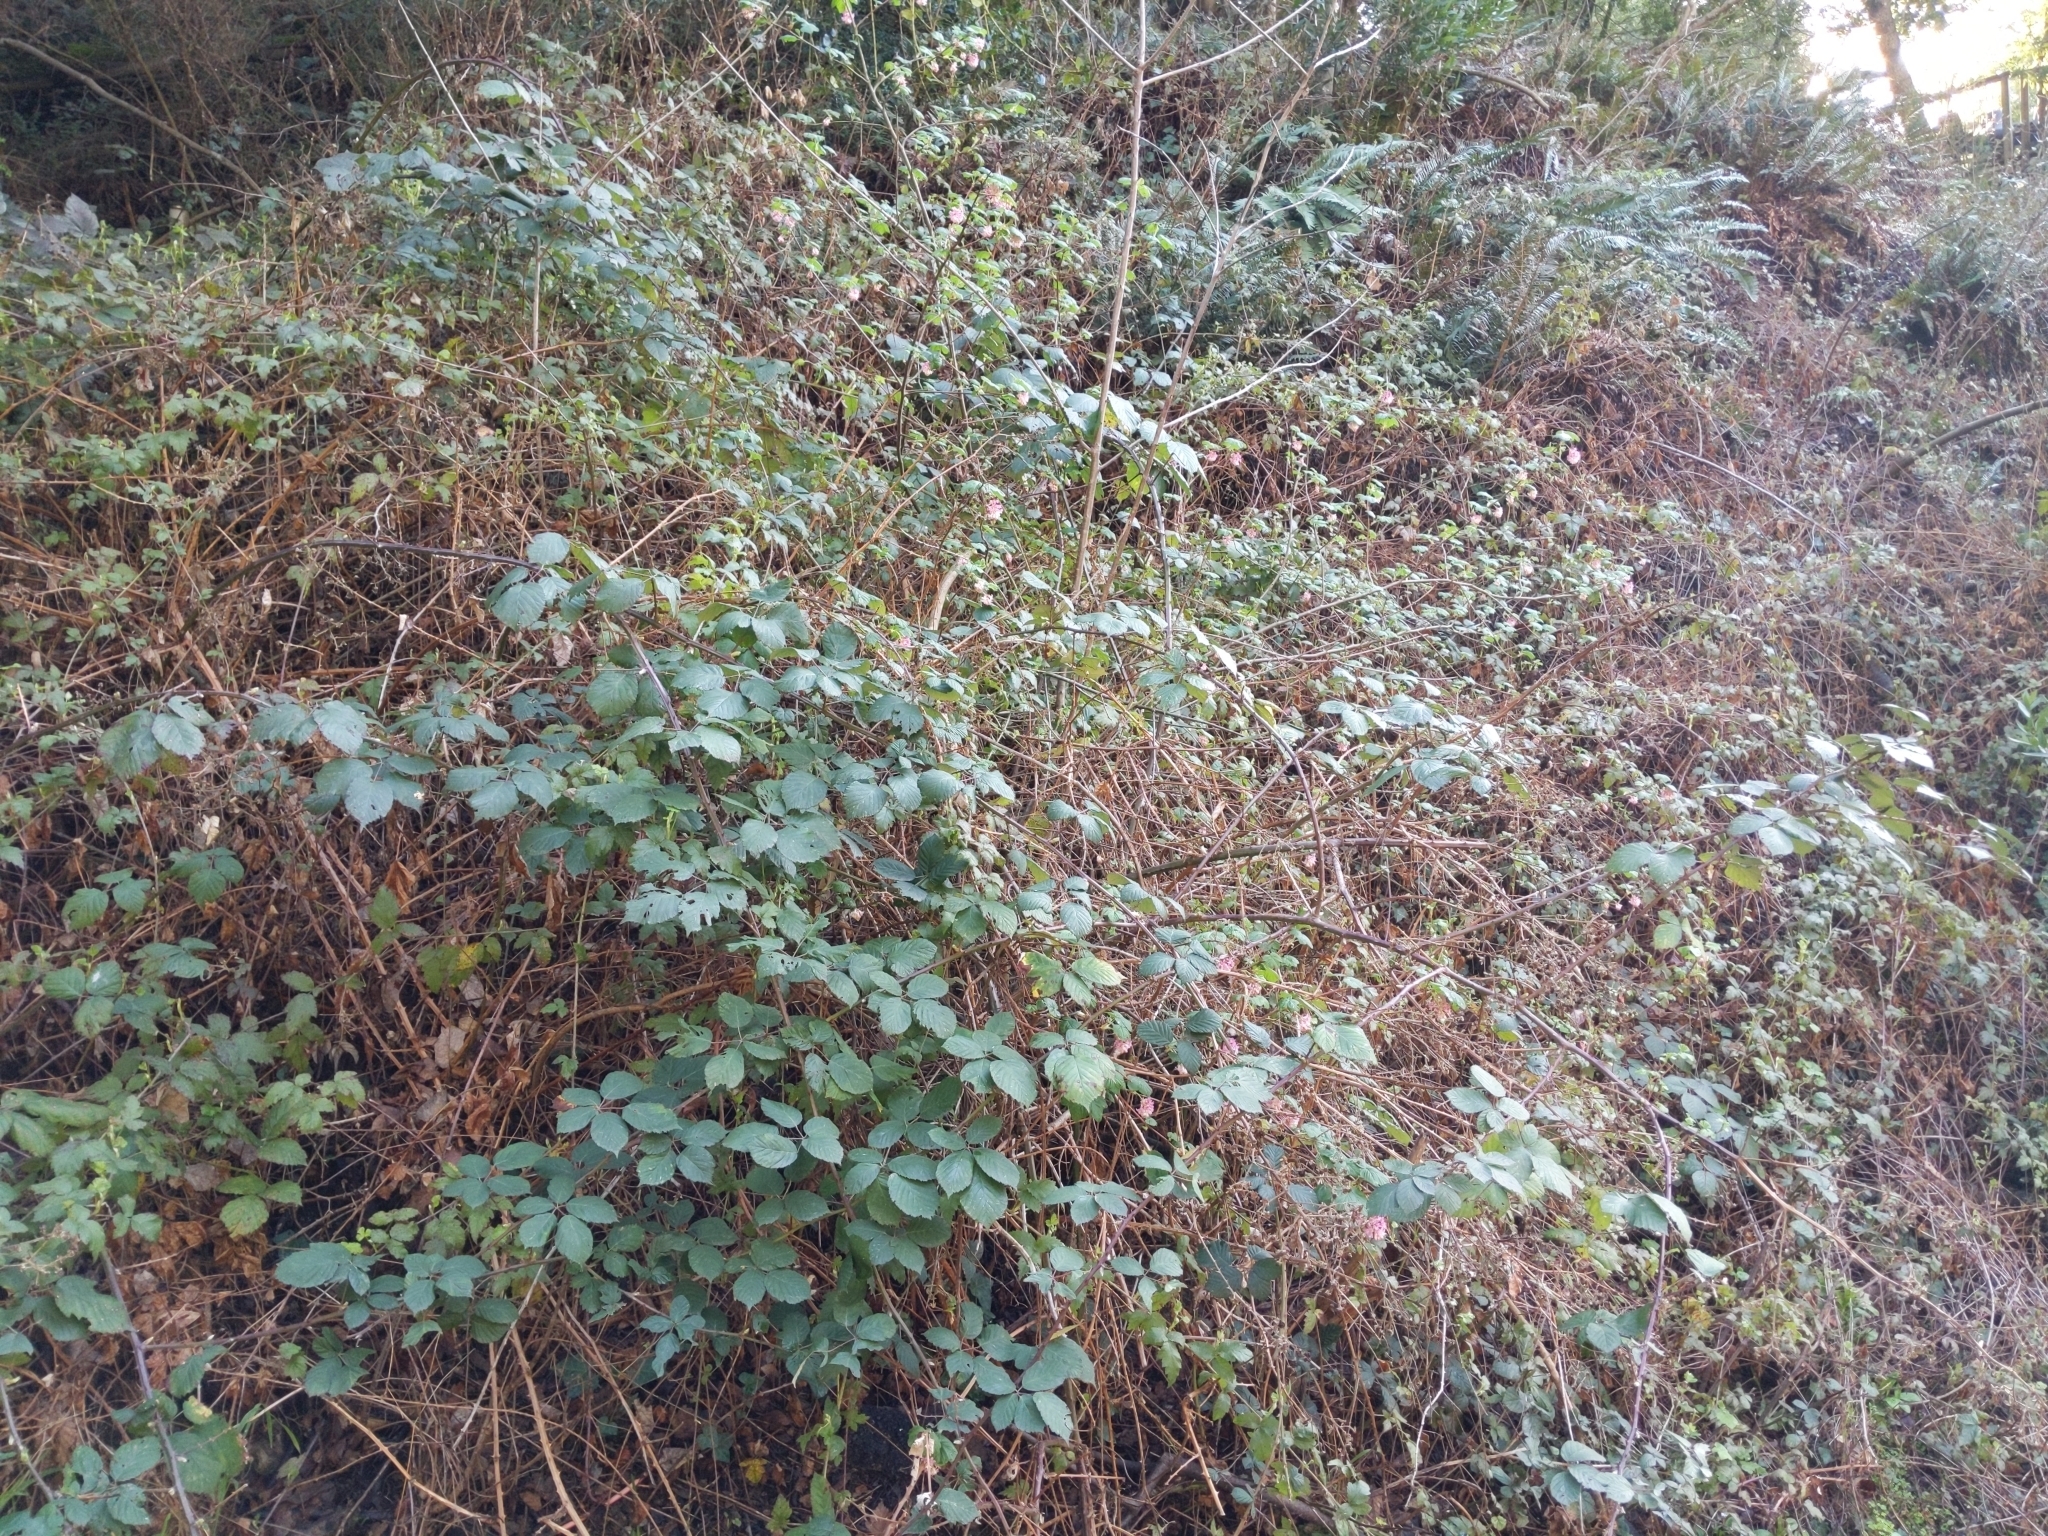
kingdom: Plantae
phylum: Tracheophyta
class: Magnoliopsida
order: Saxifragales
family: Grossulariaceae
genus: Ribes
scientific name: Ribes sanguineum
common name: Flowering currant
